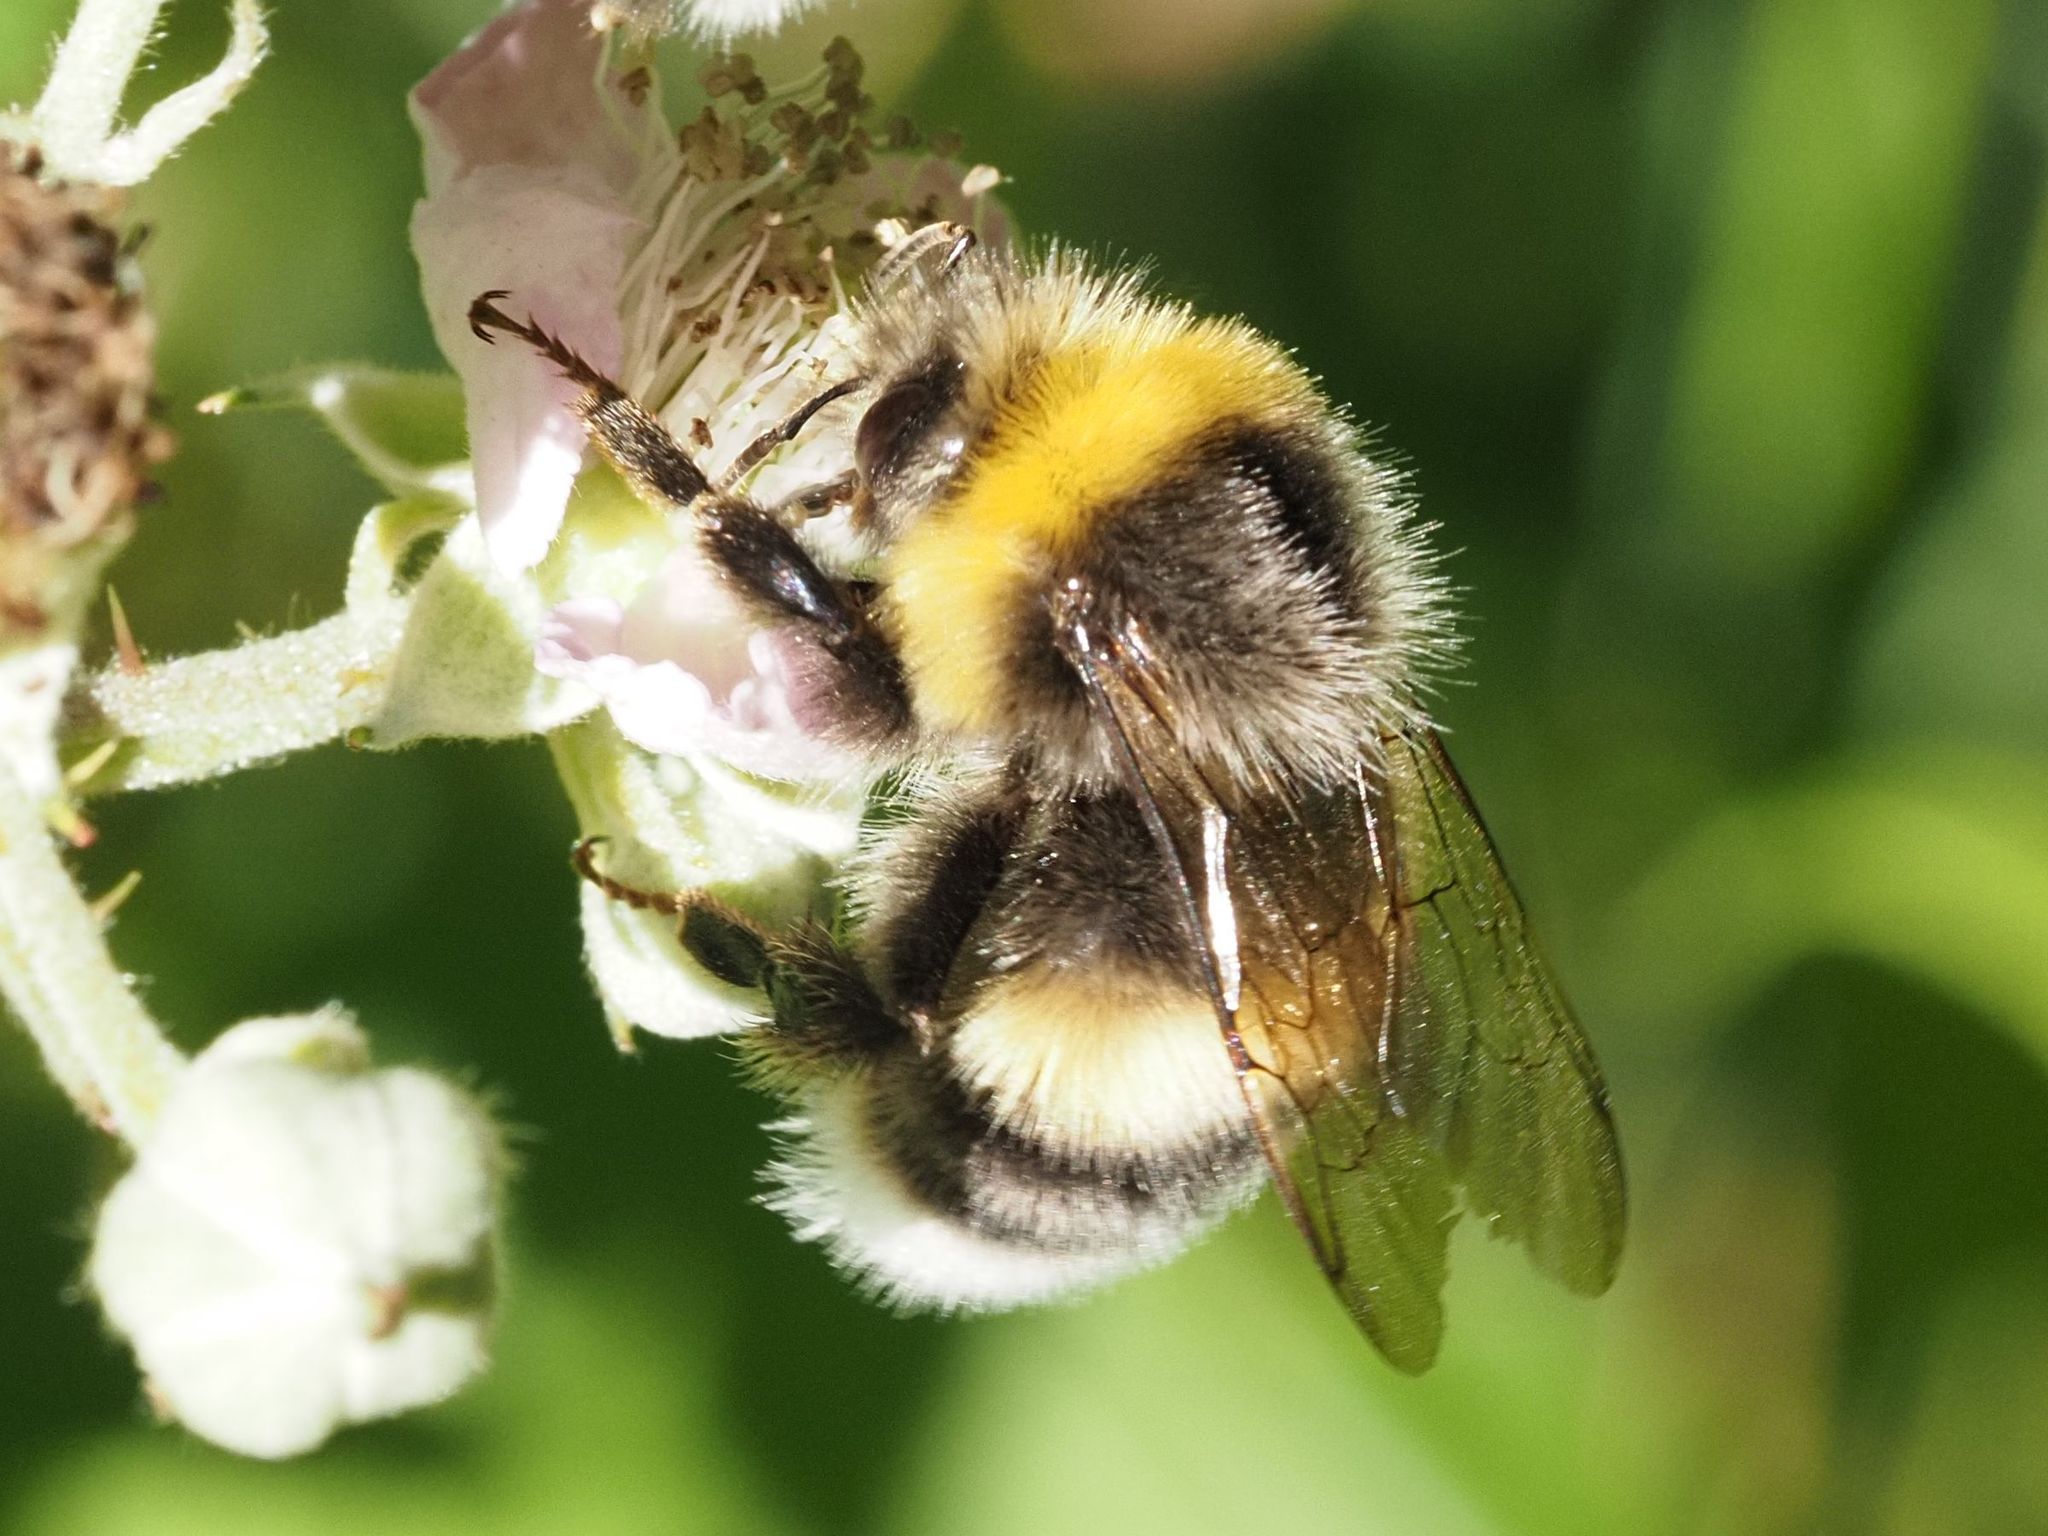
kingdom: Animalia
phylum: Arthropoda
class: Insecta
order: Hymenoptera
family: Apidae
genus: Bombus
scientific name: Bombus lucorum
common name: White-tailed bumblebee
